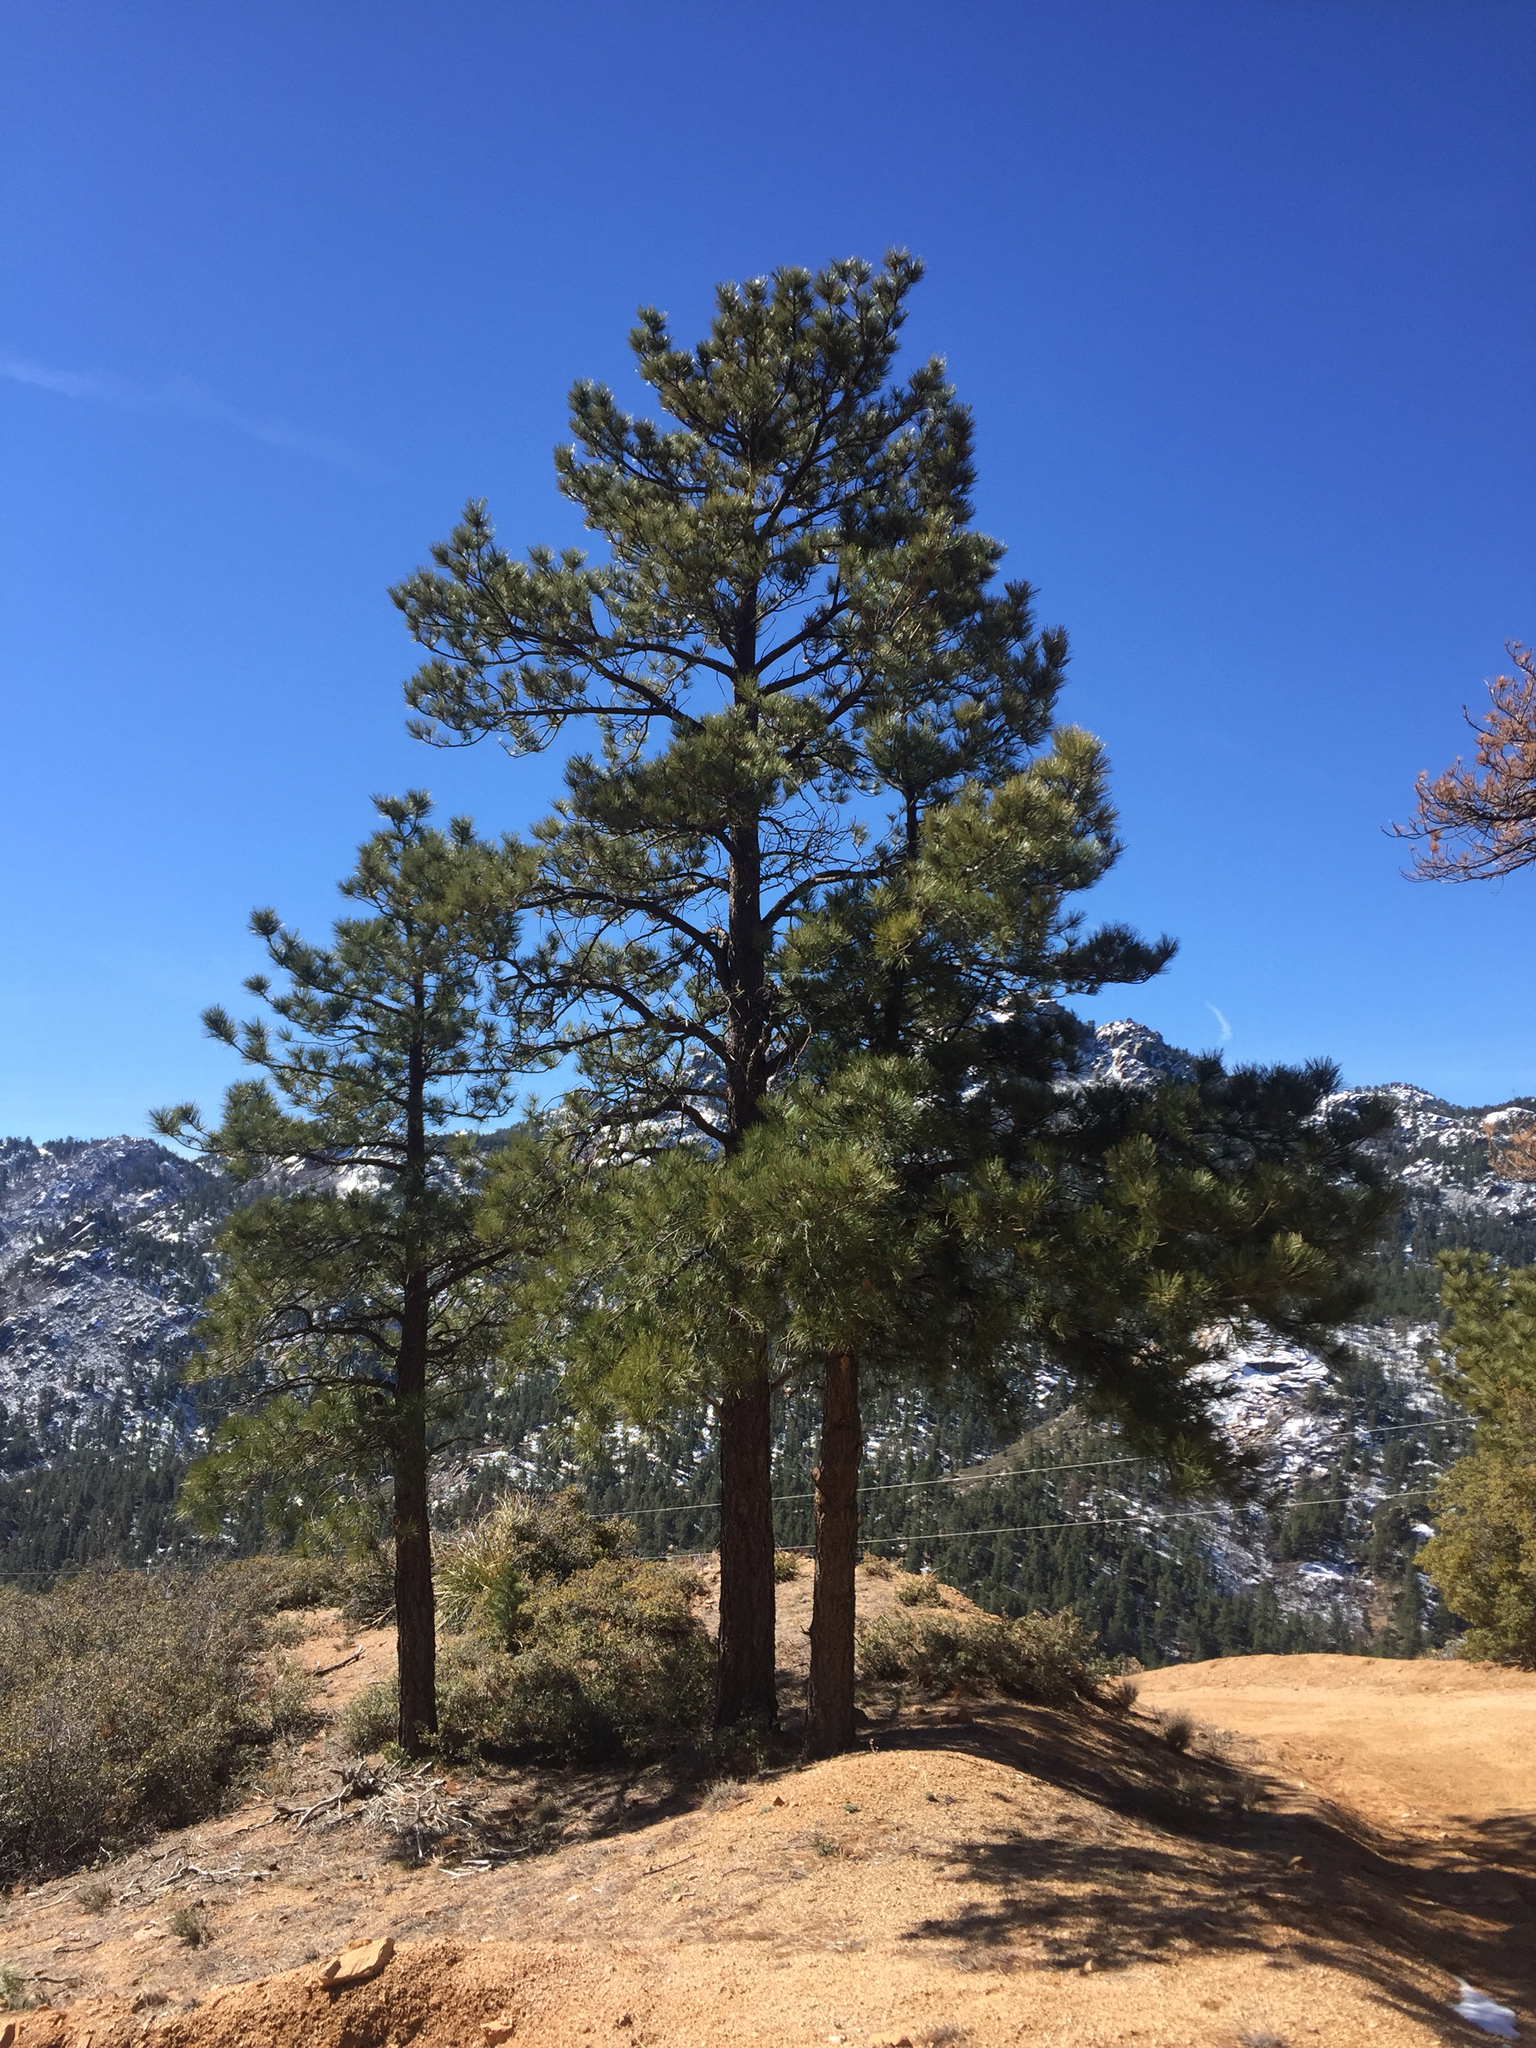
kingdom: Plantae
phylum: Tracheophyta
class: Pinopsida
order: Pinales
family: Pinaceae
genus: Pinus
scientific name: Pinus ponderosa
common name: Western yellow-pine
